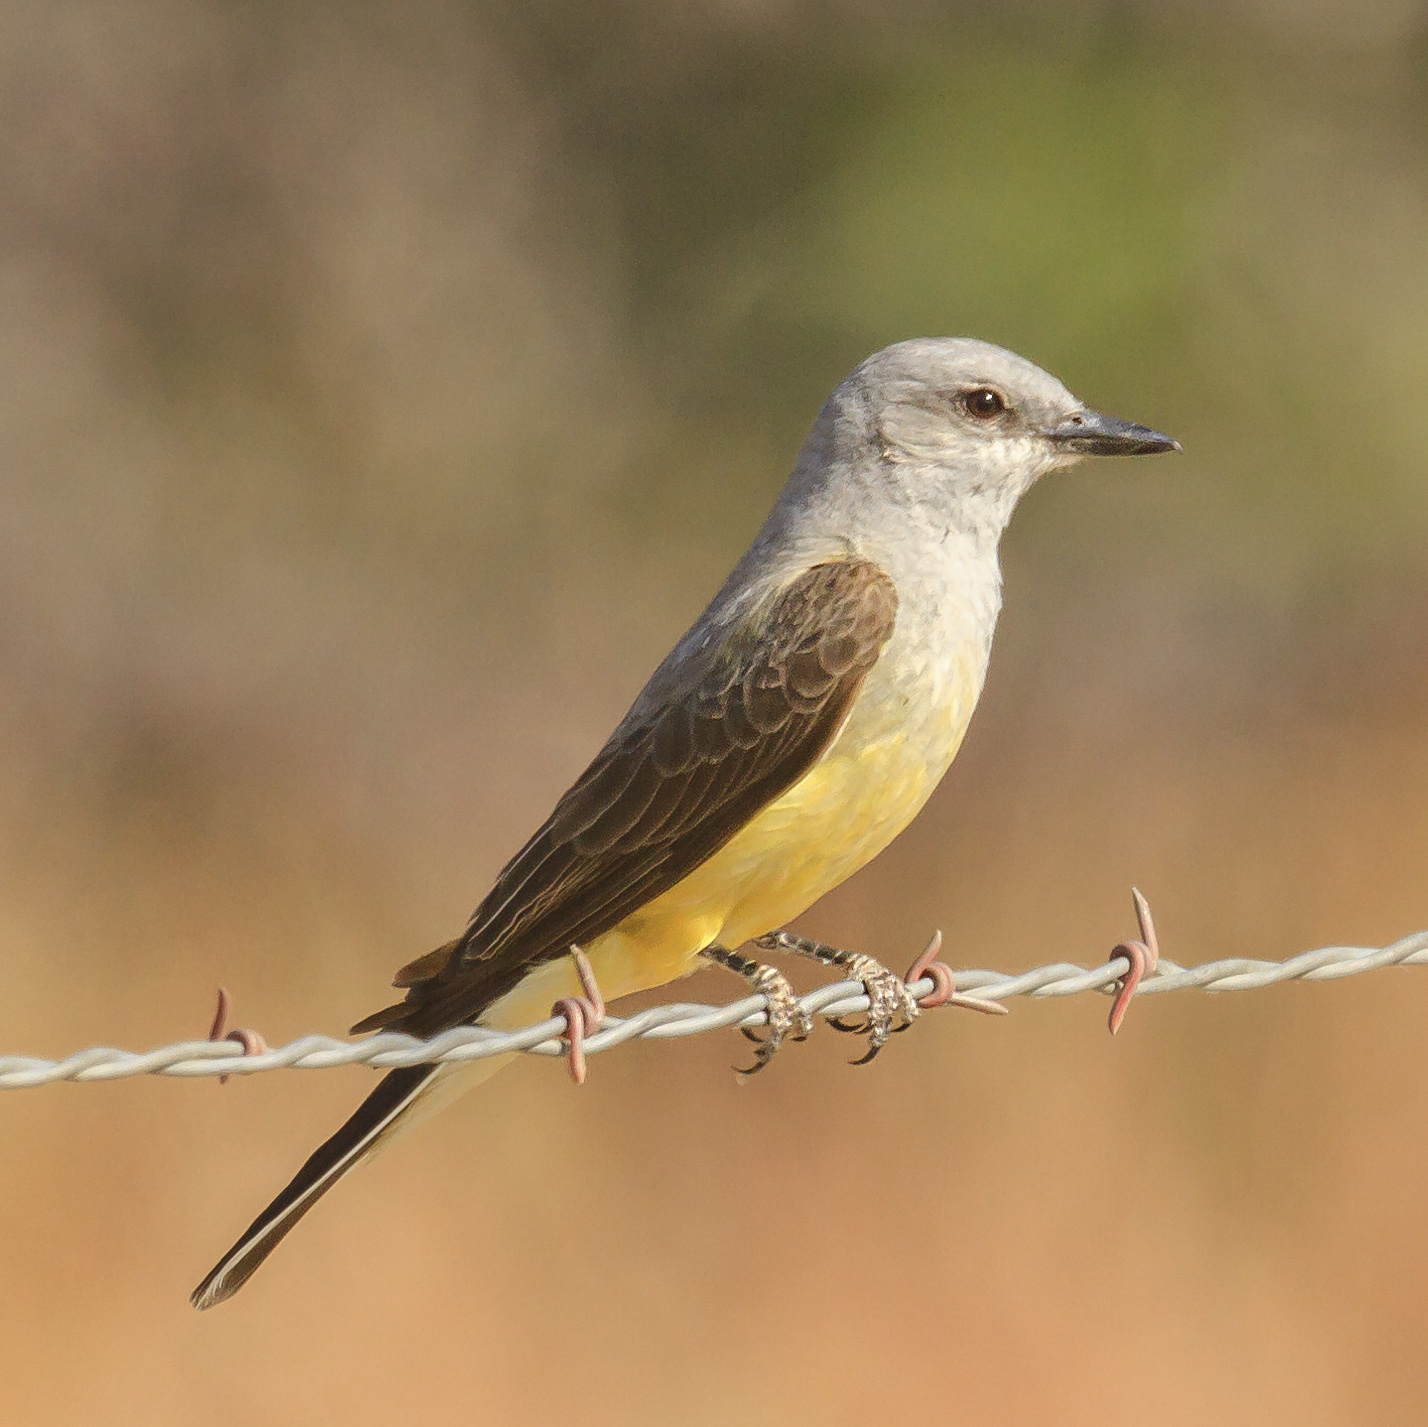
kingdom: Animalia
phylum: Chordata
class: Aves
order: Passeriformes
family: Tyrannidae
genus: Tyrannus
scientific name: Tyrannus verticalis
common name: Western kingbird
